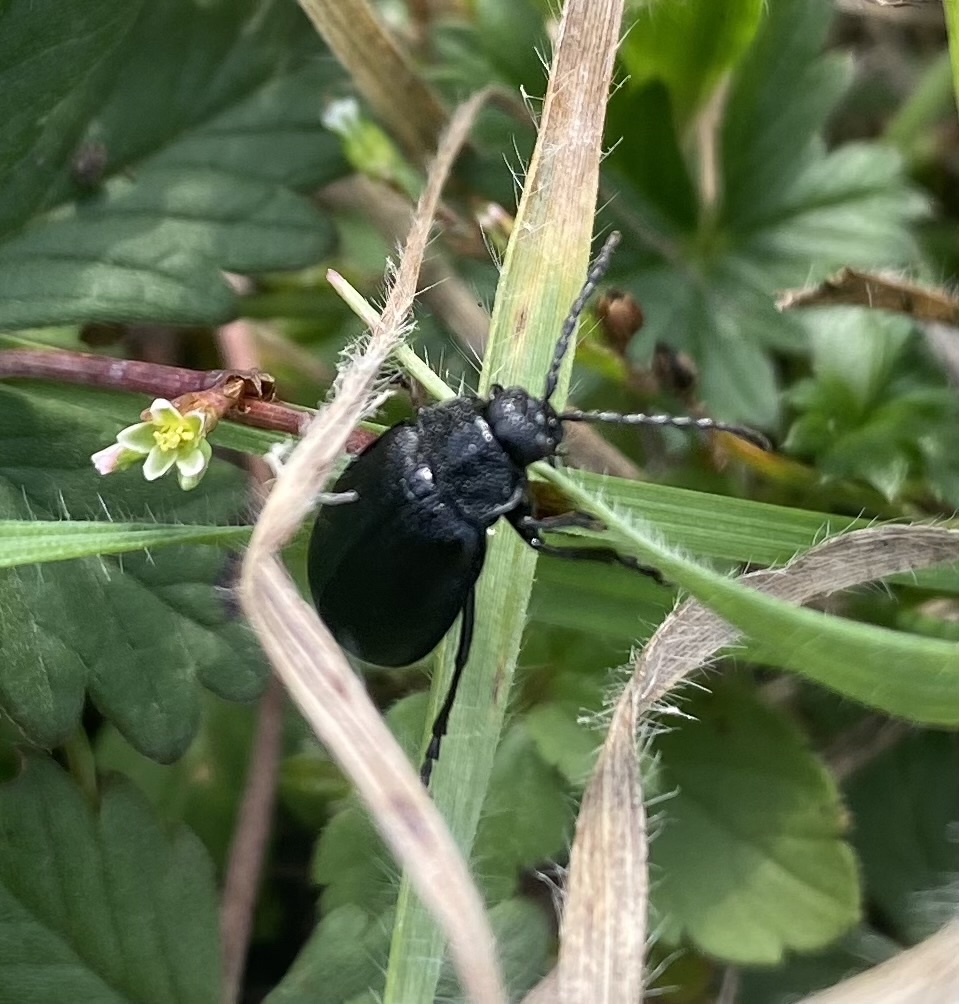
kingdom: Animalia
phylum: Arthropoda
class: Insecta
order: Coleoptera
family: Chrysomelidae
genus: Galeruca
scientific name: Galeruca tanaceti
